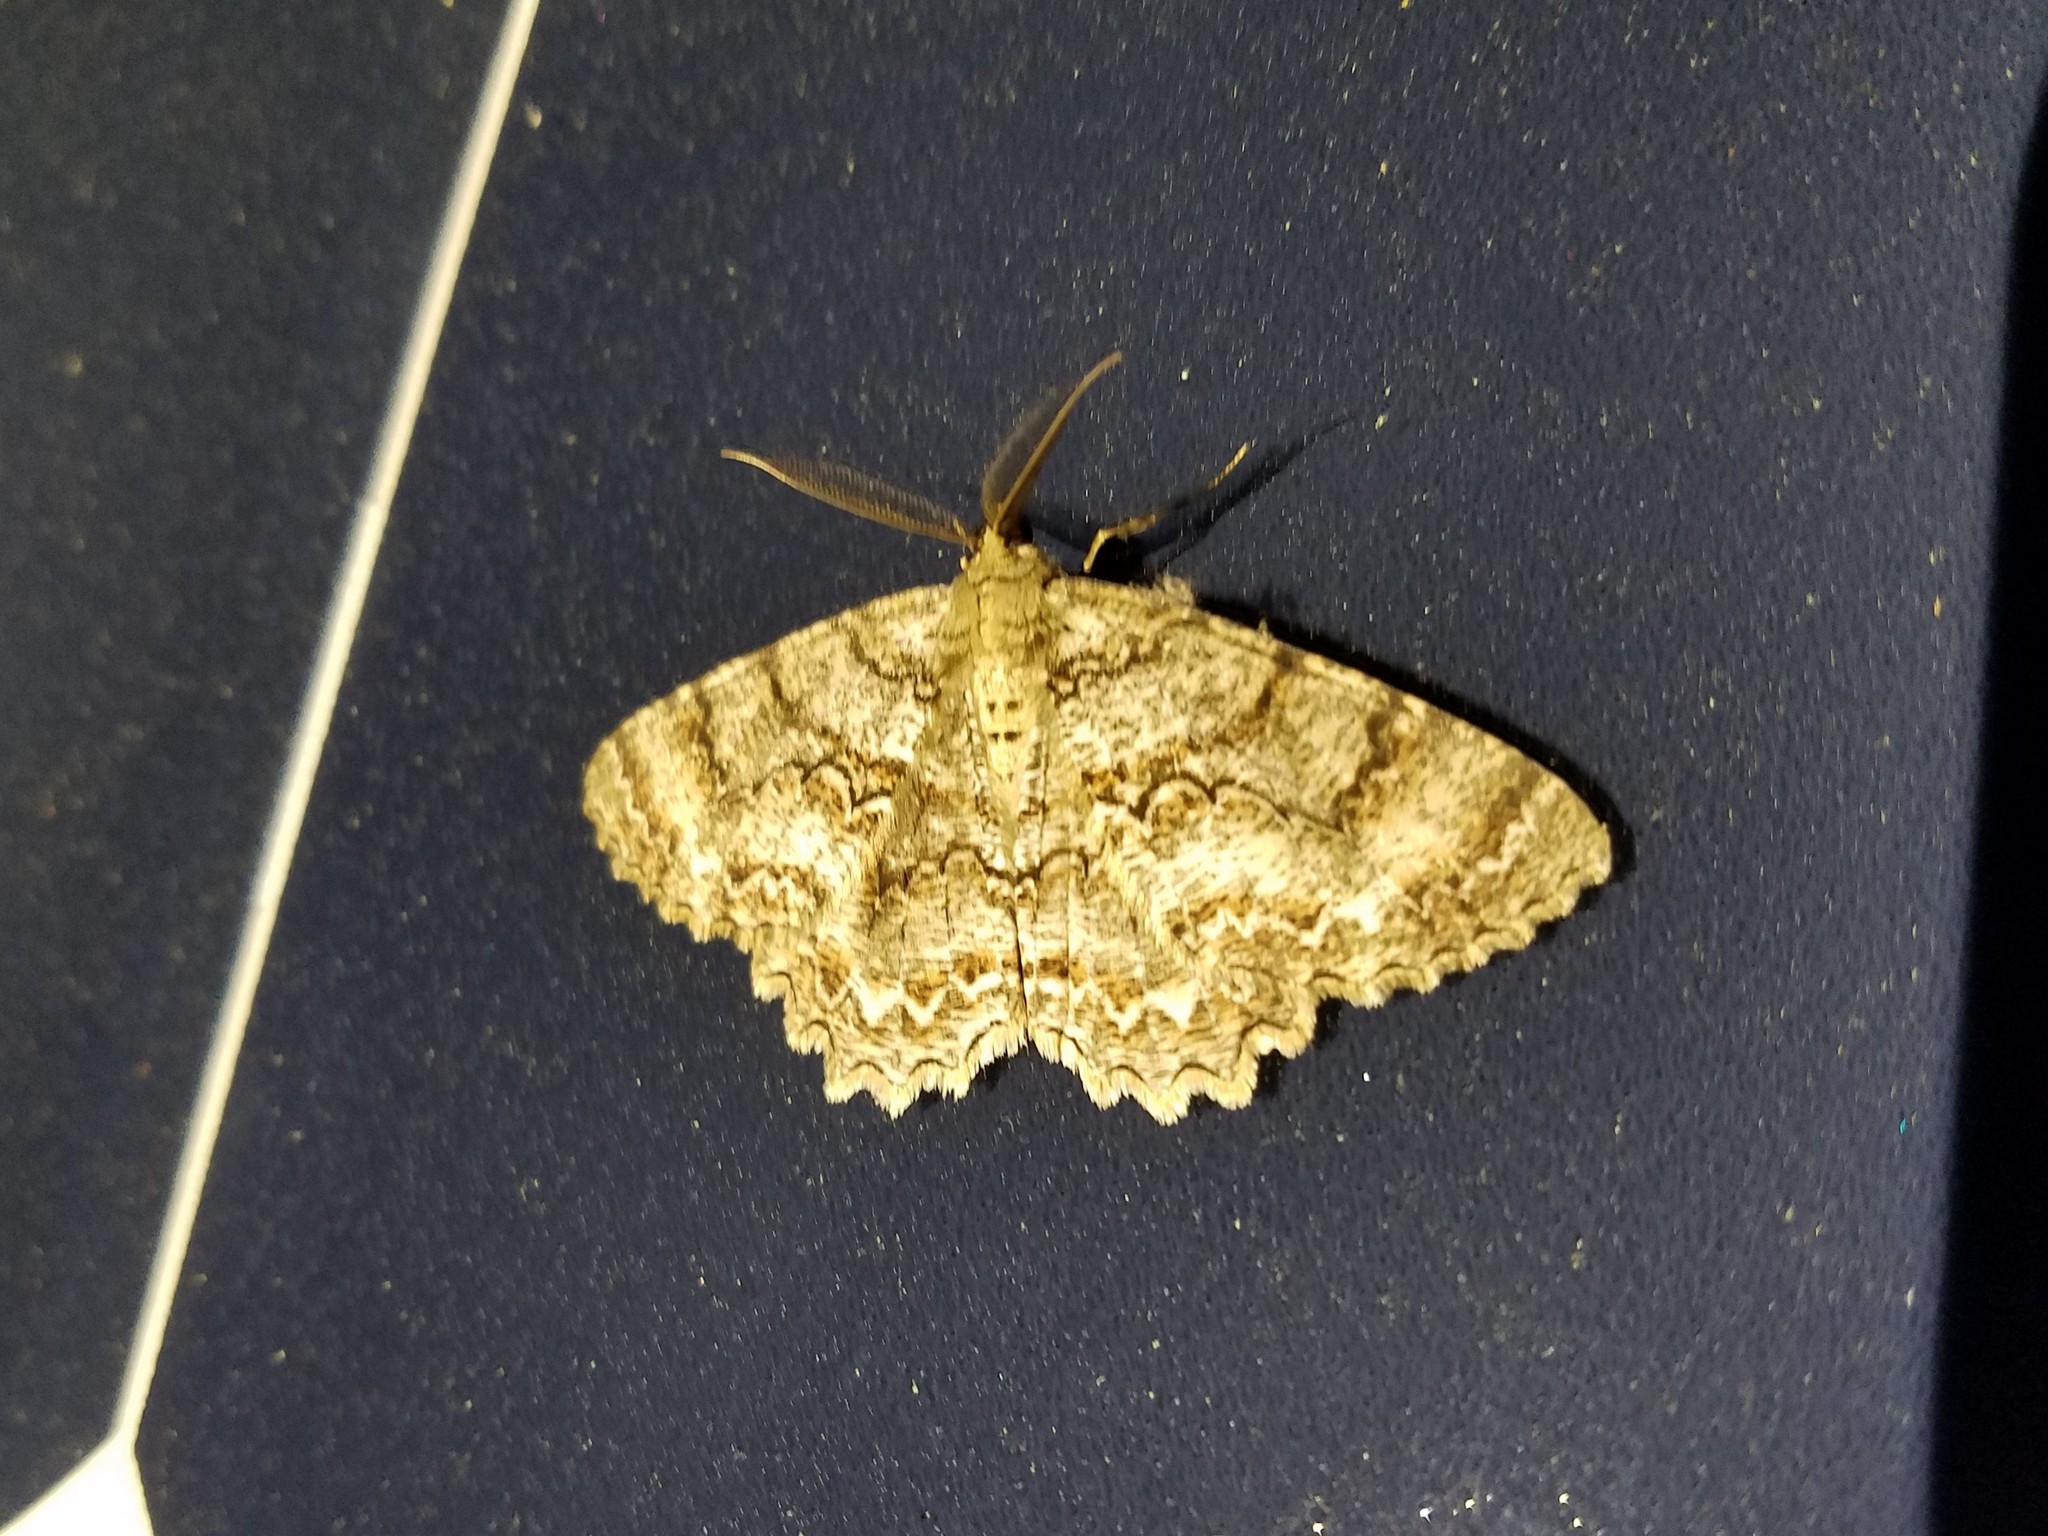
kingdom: Animalia
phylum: Arthropoda
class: Insecta
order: Lepidoptera
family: Geometridae
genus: Epimecis
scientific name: Epimecis hortaria
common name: Tulip-tree beauty
